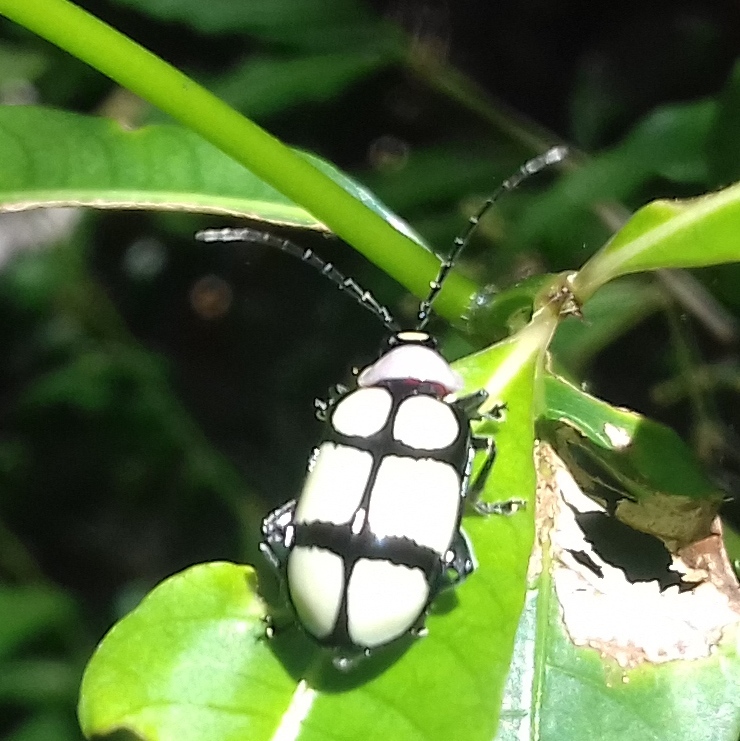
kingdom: Animalia
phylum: Arthropoda
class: Insecta
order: Coleoptera
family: Chrysomelidae
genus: Omophoita
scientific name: Omophoita
